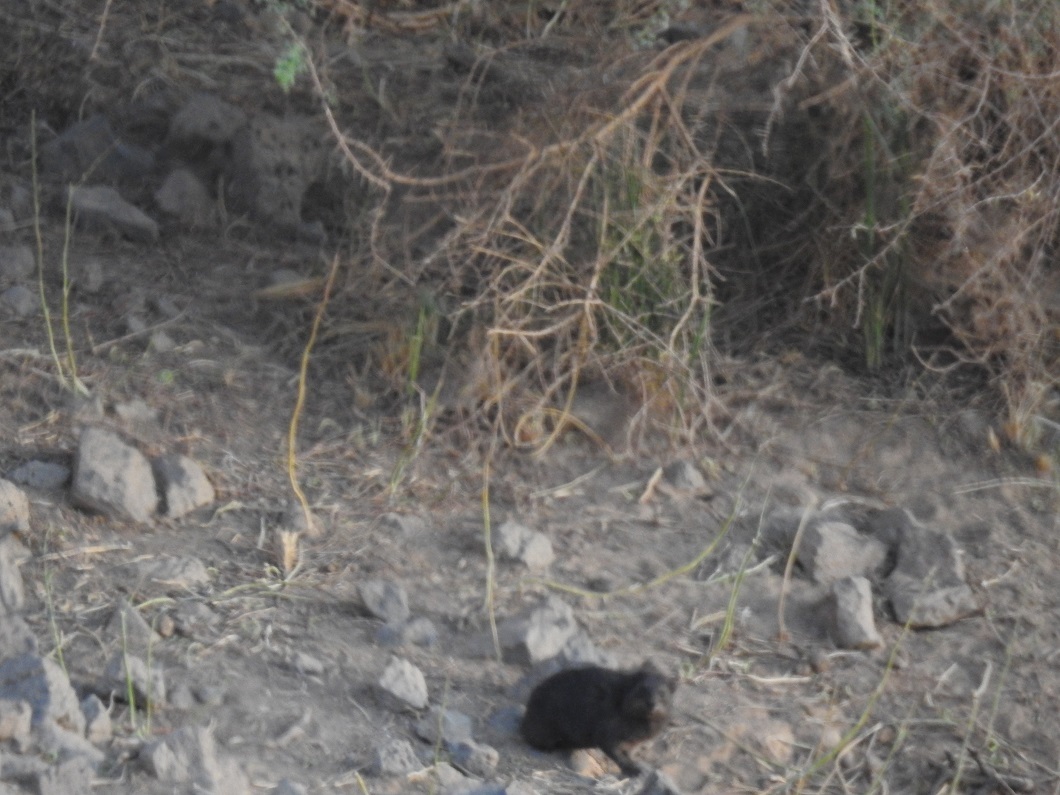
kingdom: Animalia
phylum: Chordata
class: Mammalia
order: Hyracoidea
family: Procaviidae
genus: Procavia
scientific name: Procavia capensis
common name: Rock hyrax
